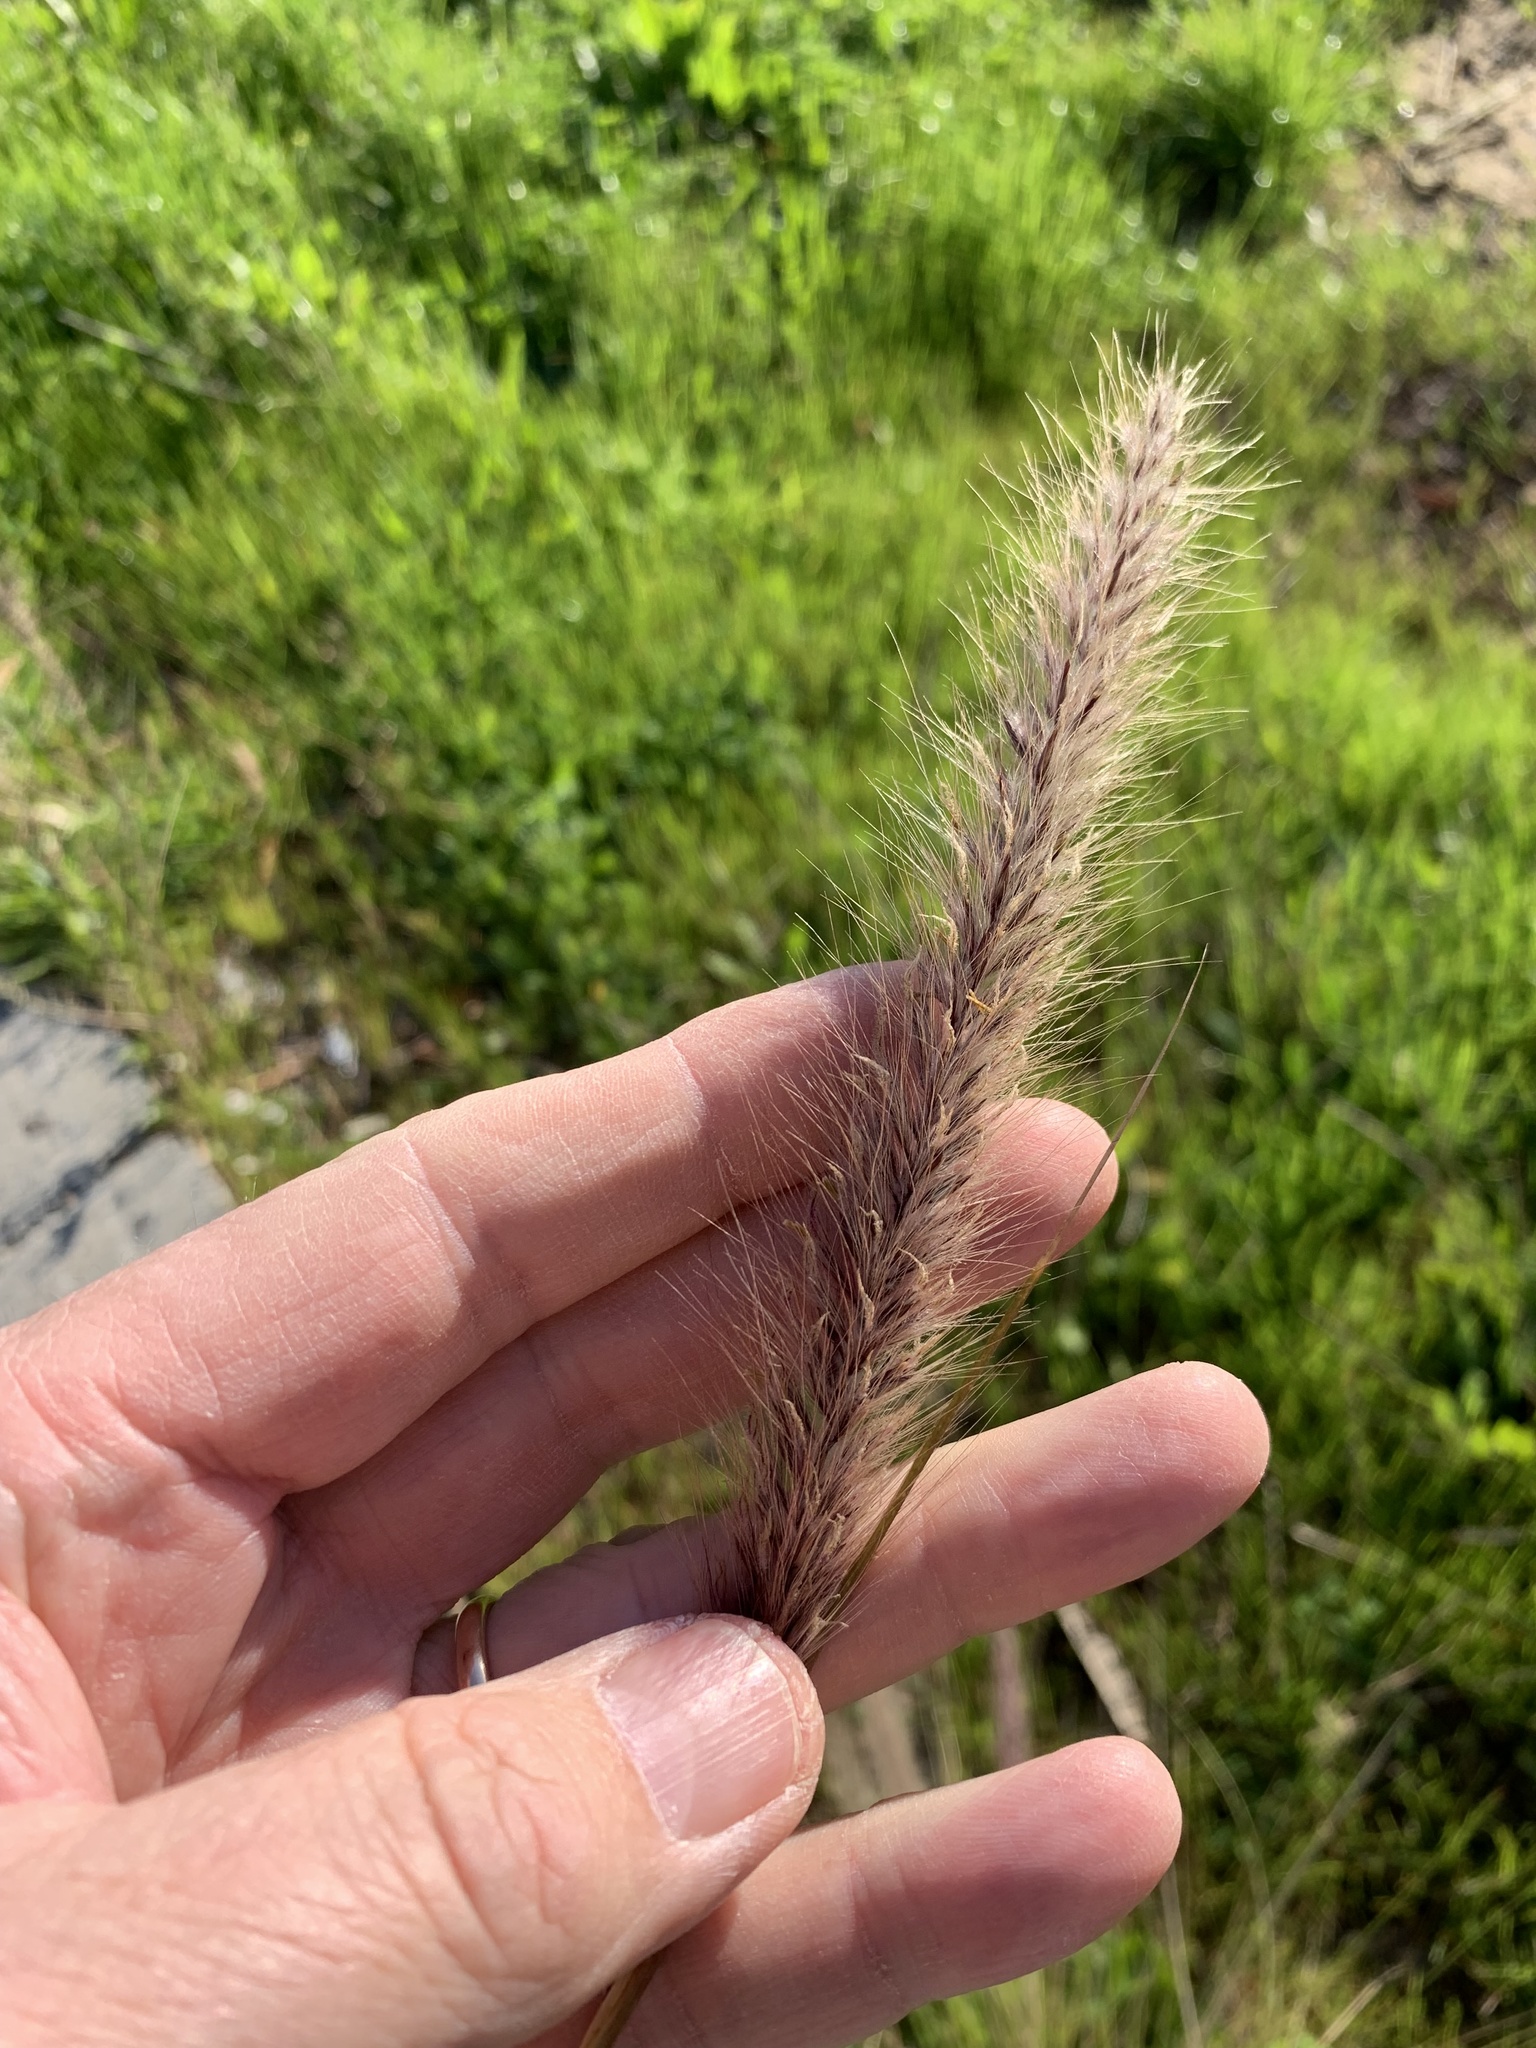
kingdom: Plantae
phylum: Tracheophyta
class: Liliopsida
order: Poales
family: Poaceae
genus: Cenchrus
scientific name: Cenchrus setaceus
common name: Crimson fountaingrass
